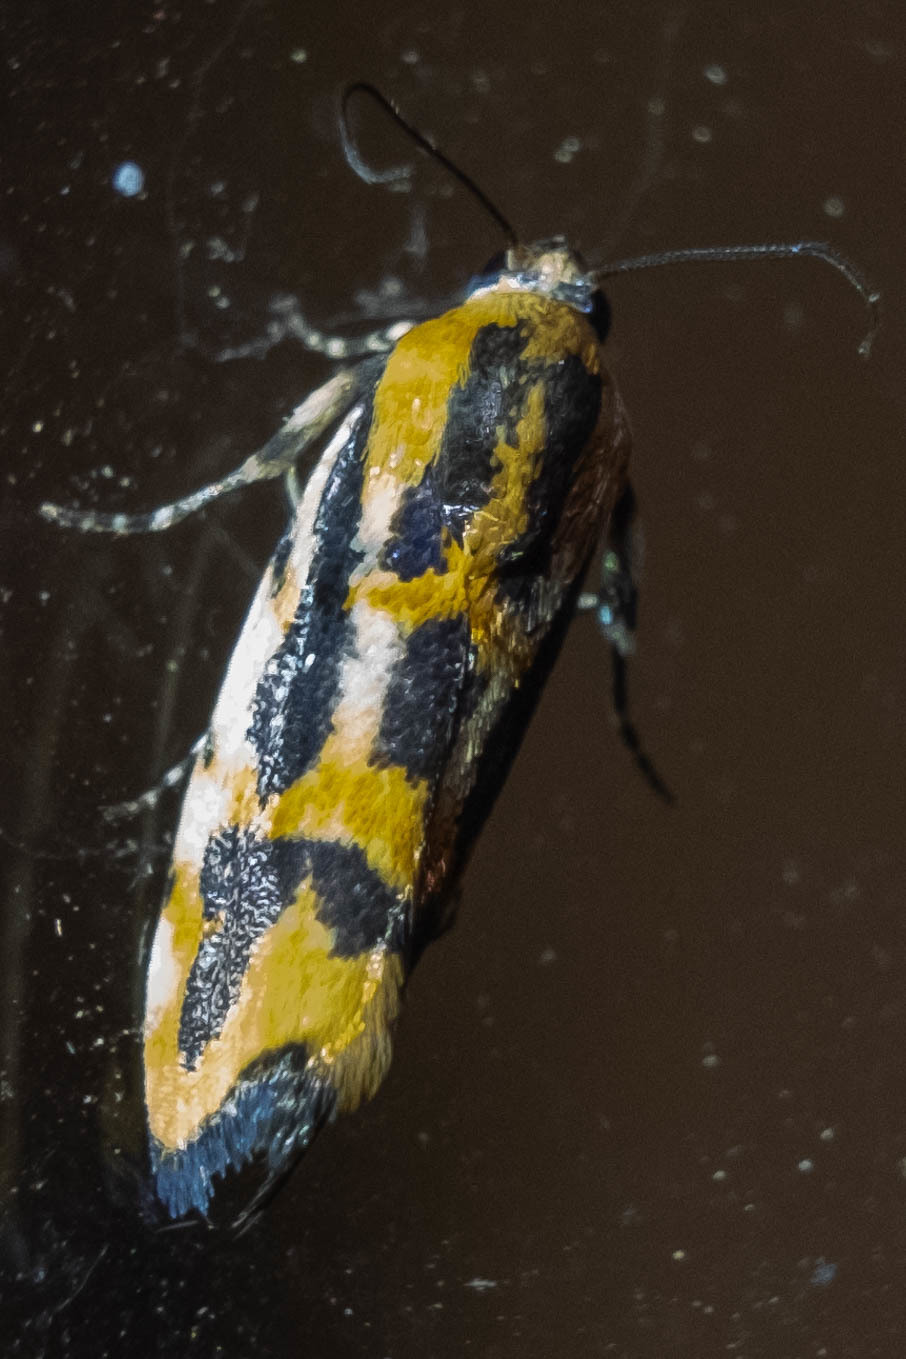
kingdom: Animalia
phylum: Arthropoda
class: Insecta
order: Lepidoptera
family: Noctuidae
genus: Acontia
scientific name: Acontia leo
